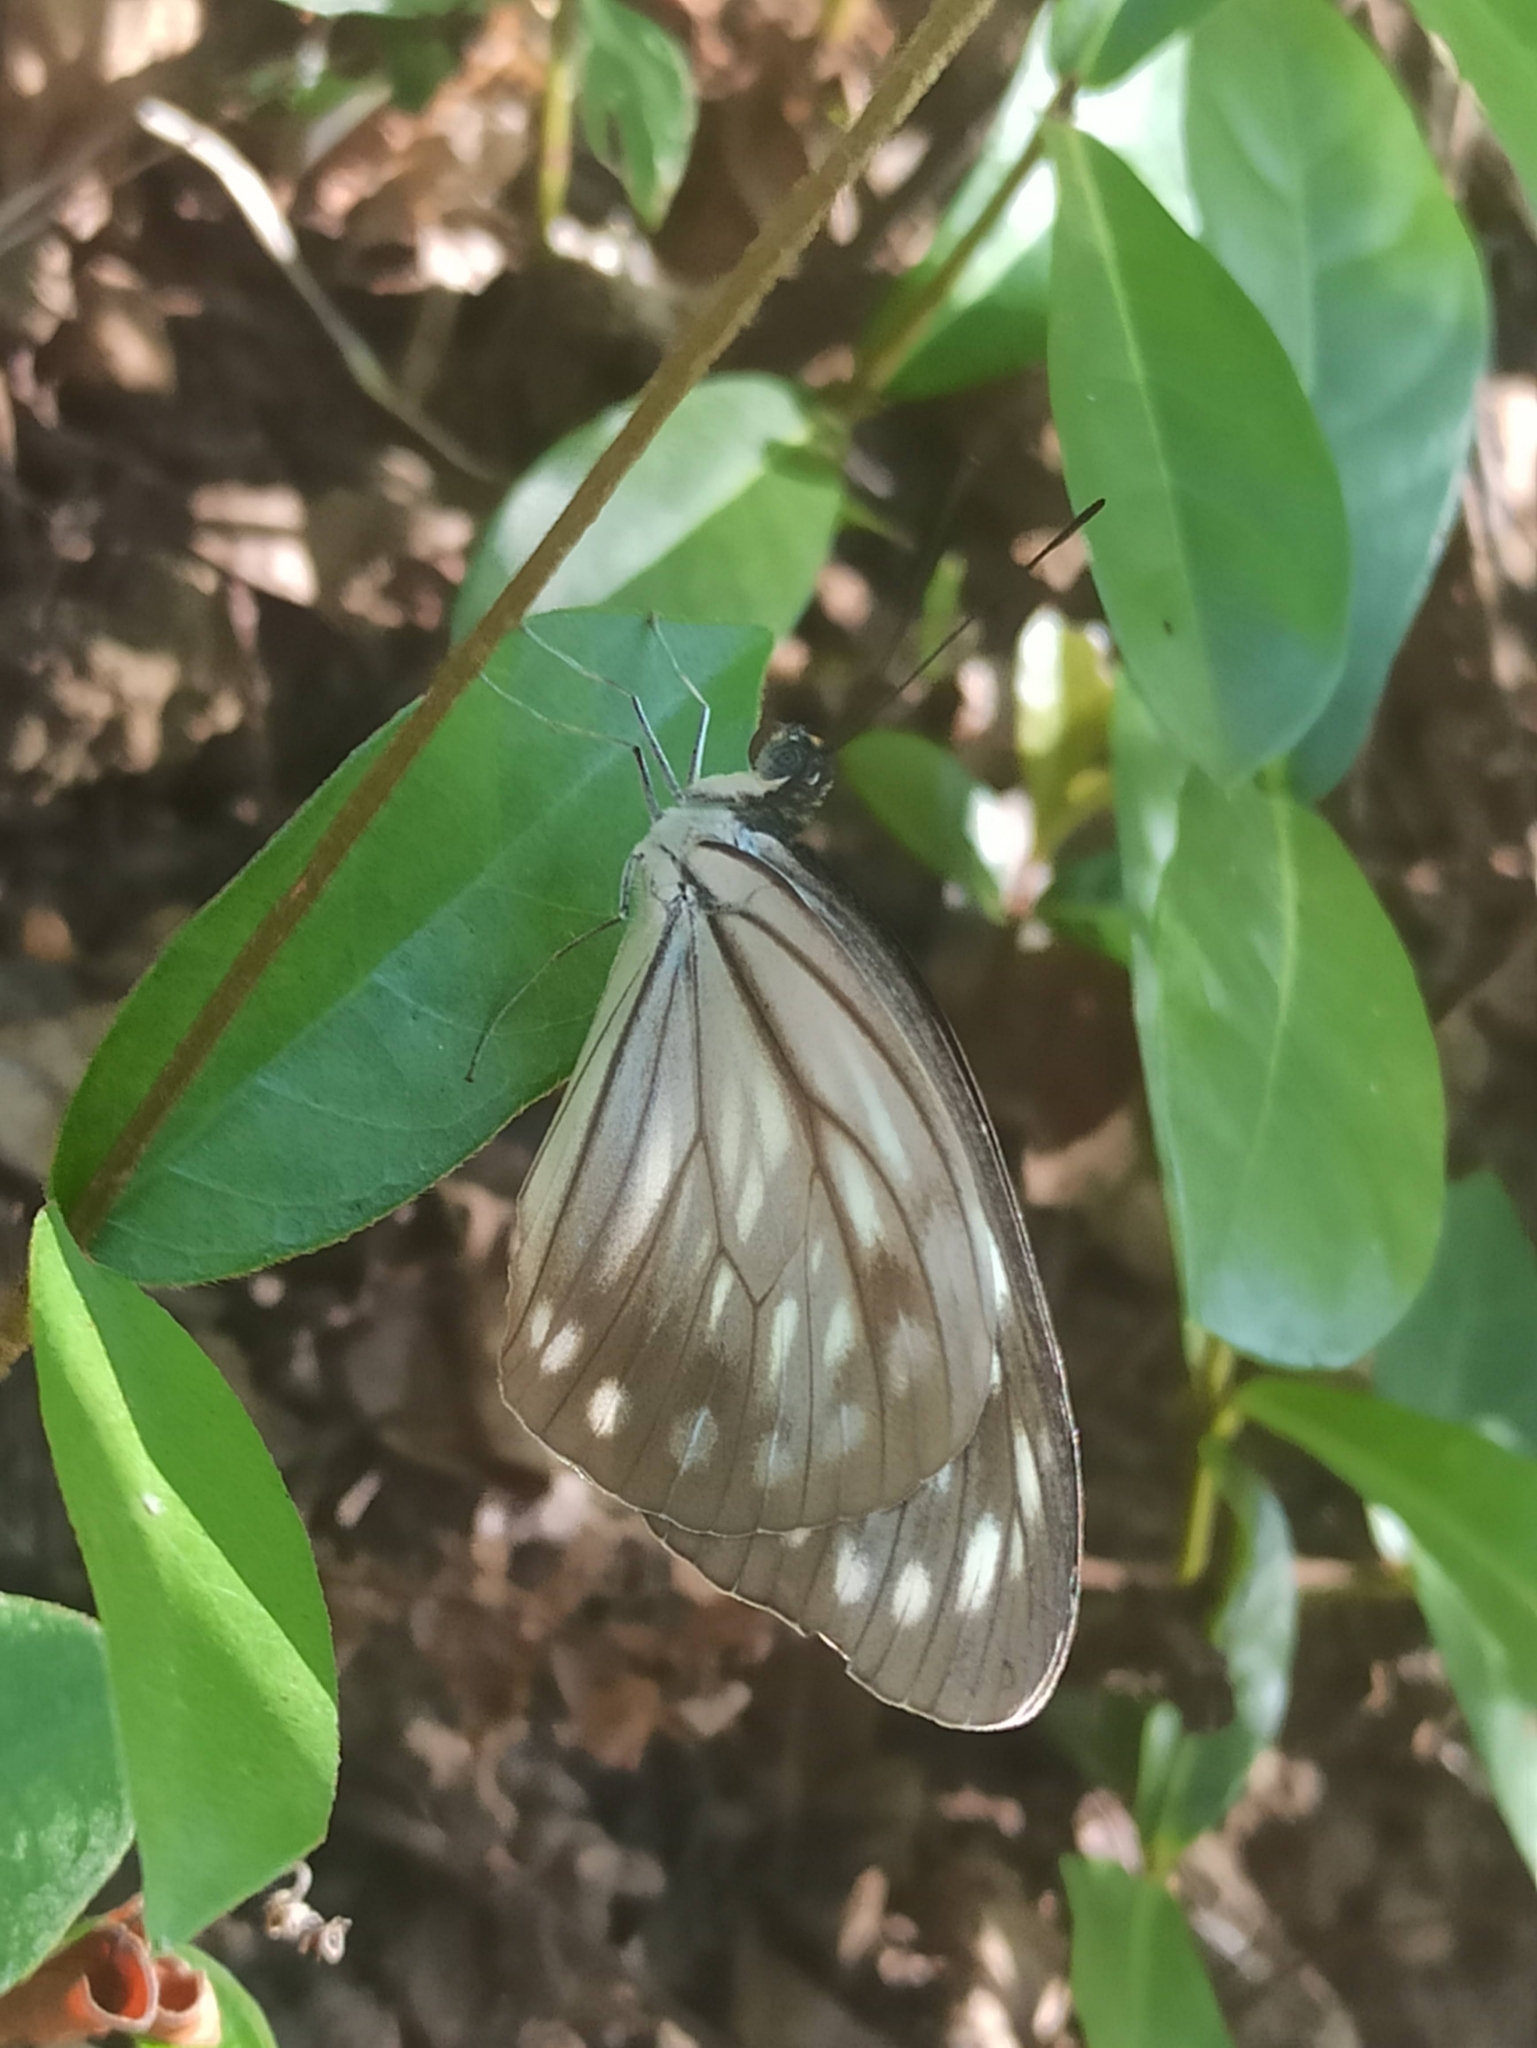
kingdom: Animalia
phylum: Arthropoda
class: Insecta
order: Lepidoptera
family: Pieridae
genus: Pareronia
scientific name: Pareronia hippia
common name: Indian wanderer
